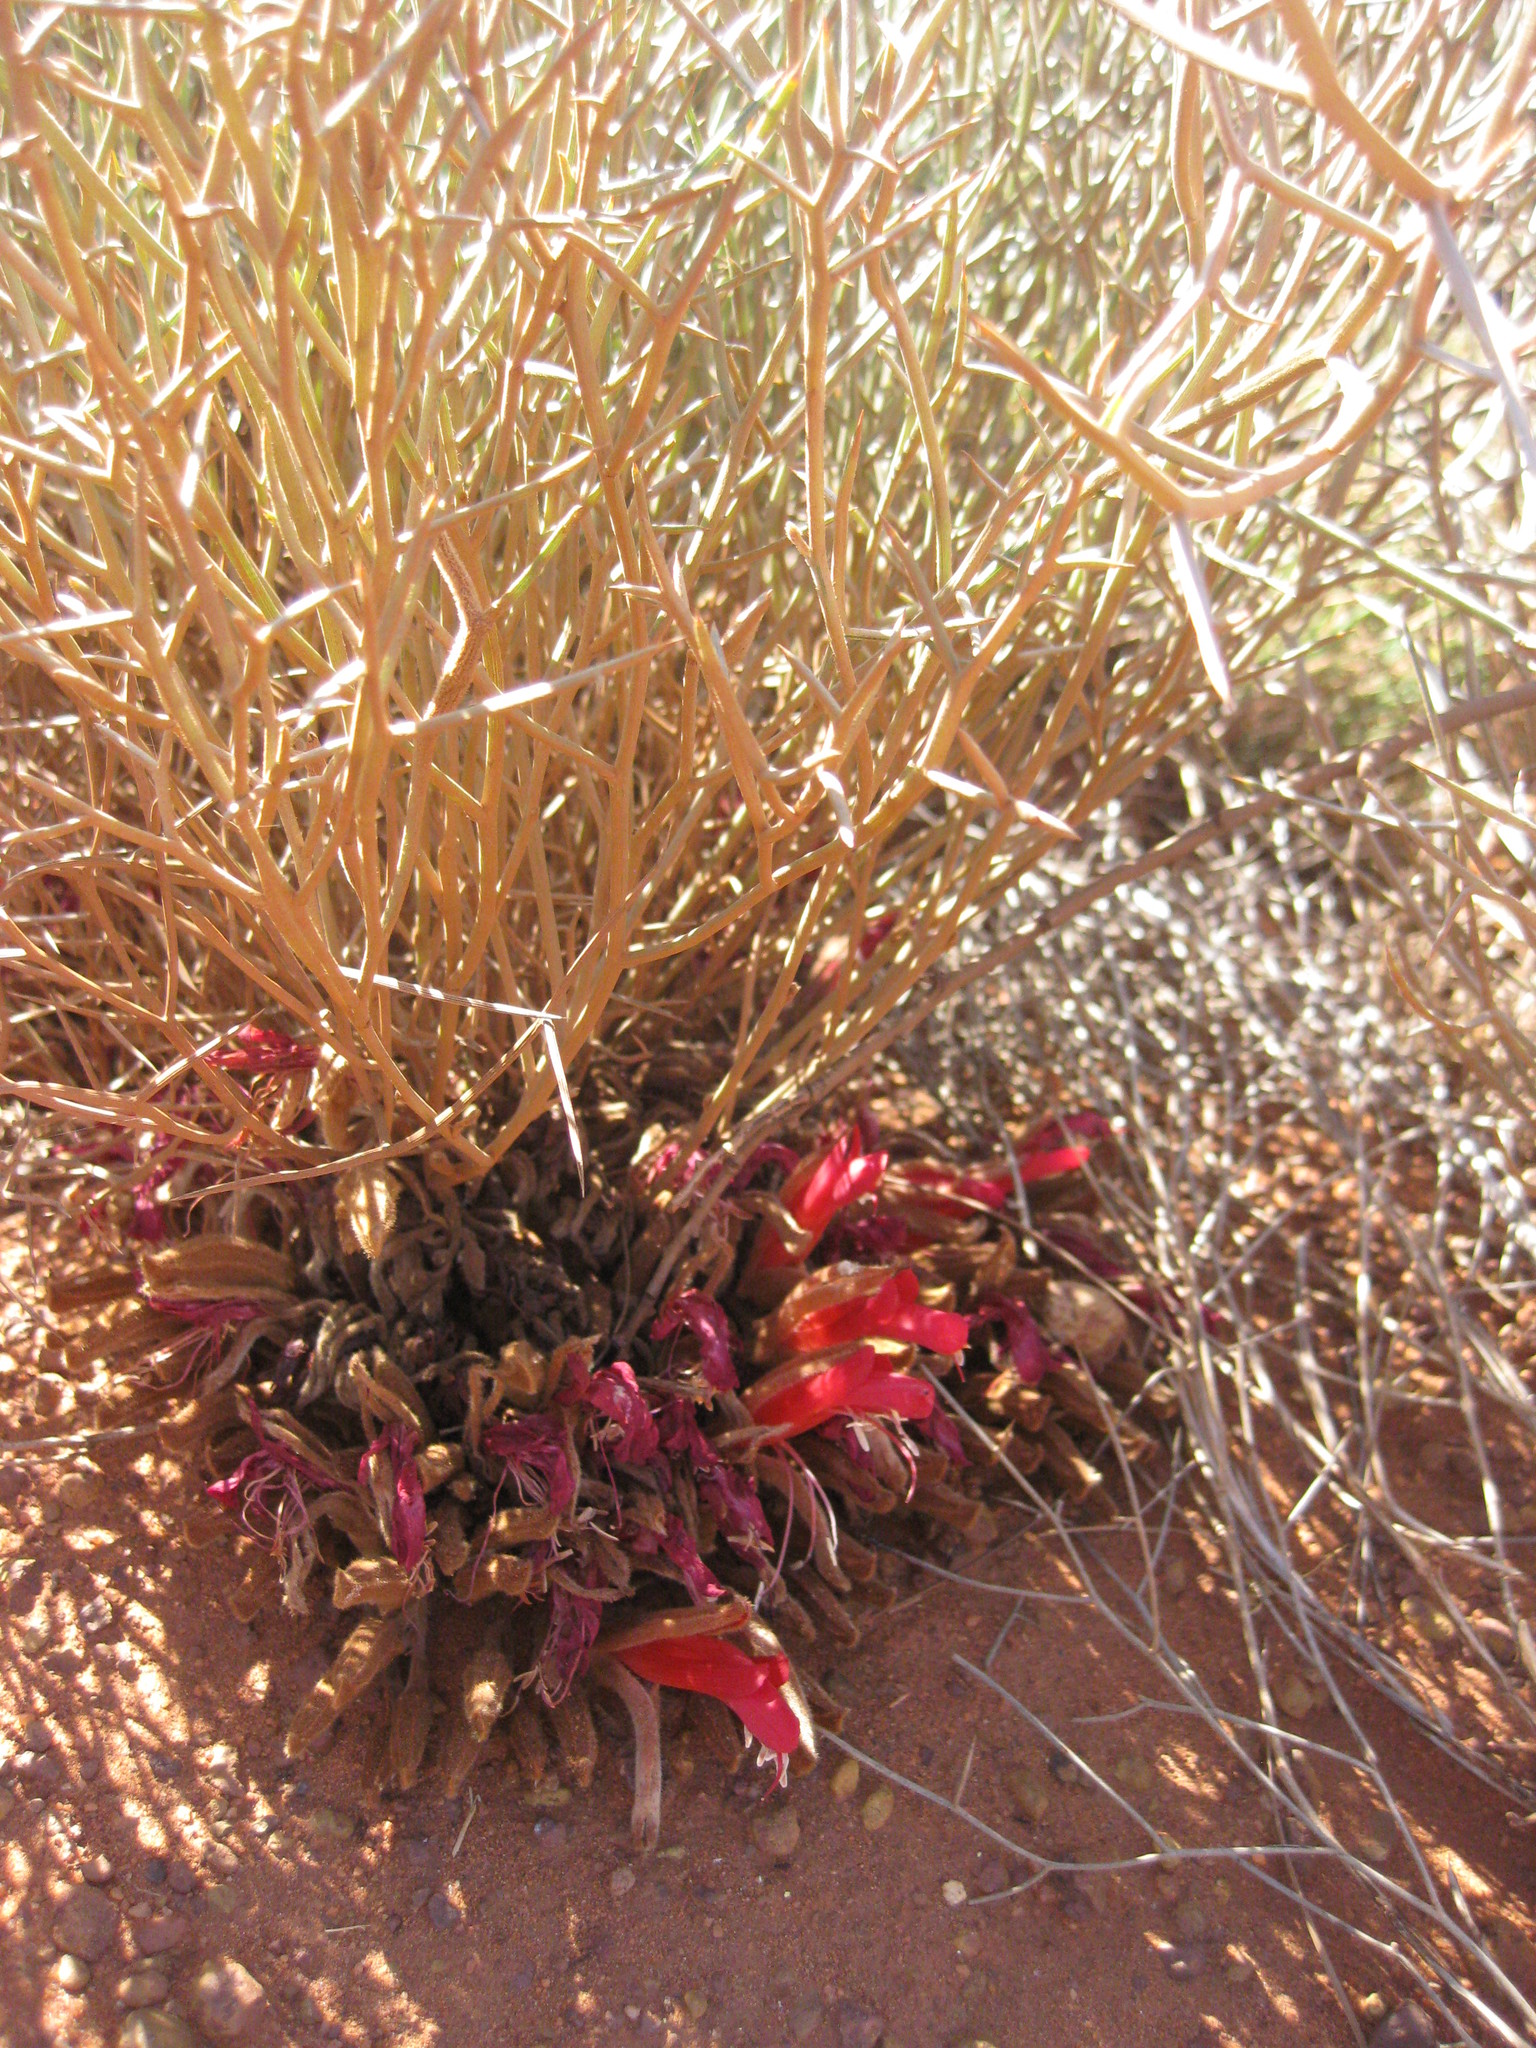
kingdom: Plantae
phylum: Tracheophyta
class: Magnoliopsida
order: Fabales
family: Fabaceae
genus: Leptosema
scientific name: Leptosema chambersii
